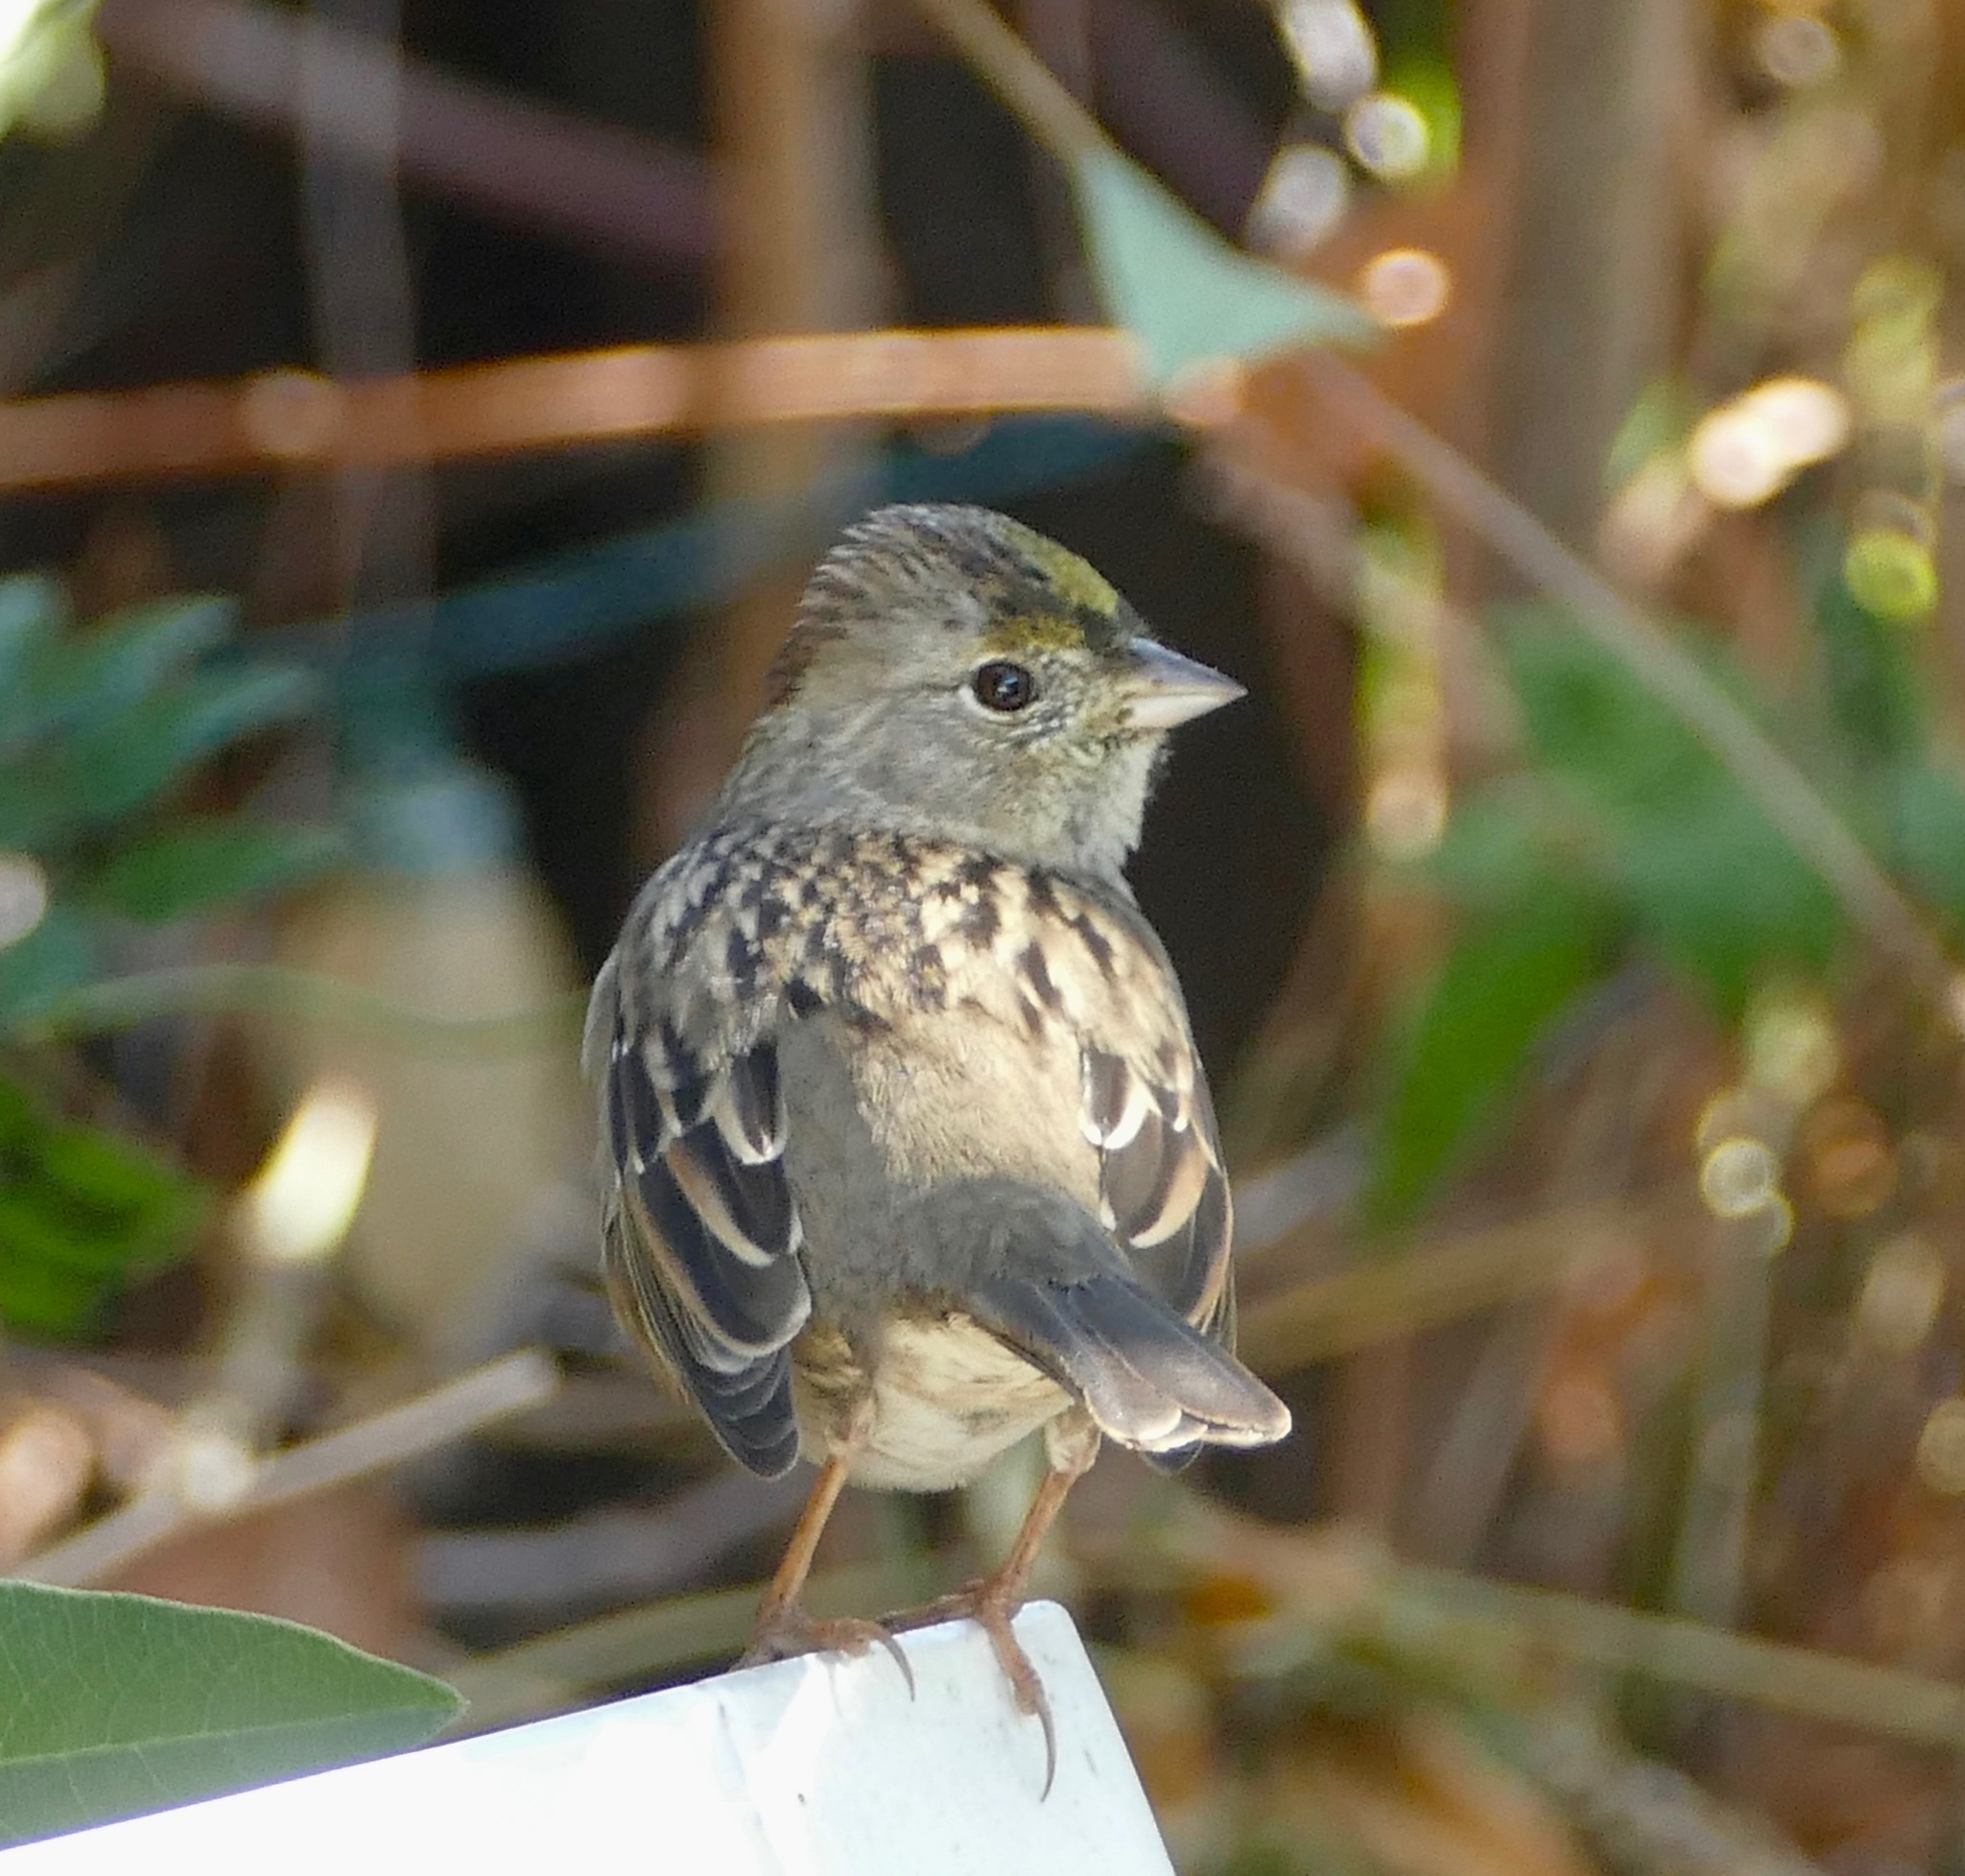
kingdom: Animalia
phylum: Chordata
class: Aves
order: Passeriformes
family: Passerellidae
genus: Zonotrichia
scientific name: Zonotrichia atricapilla
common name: Golden-crowned sparrow
